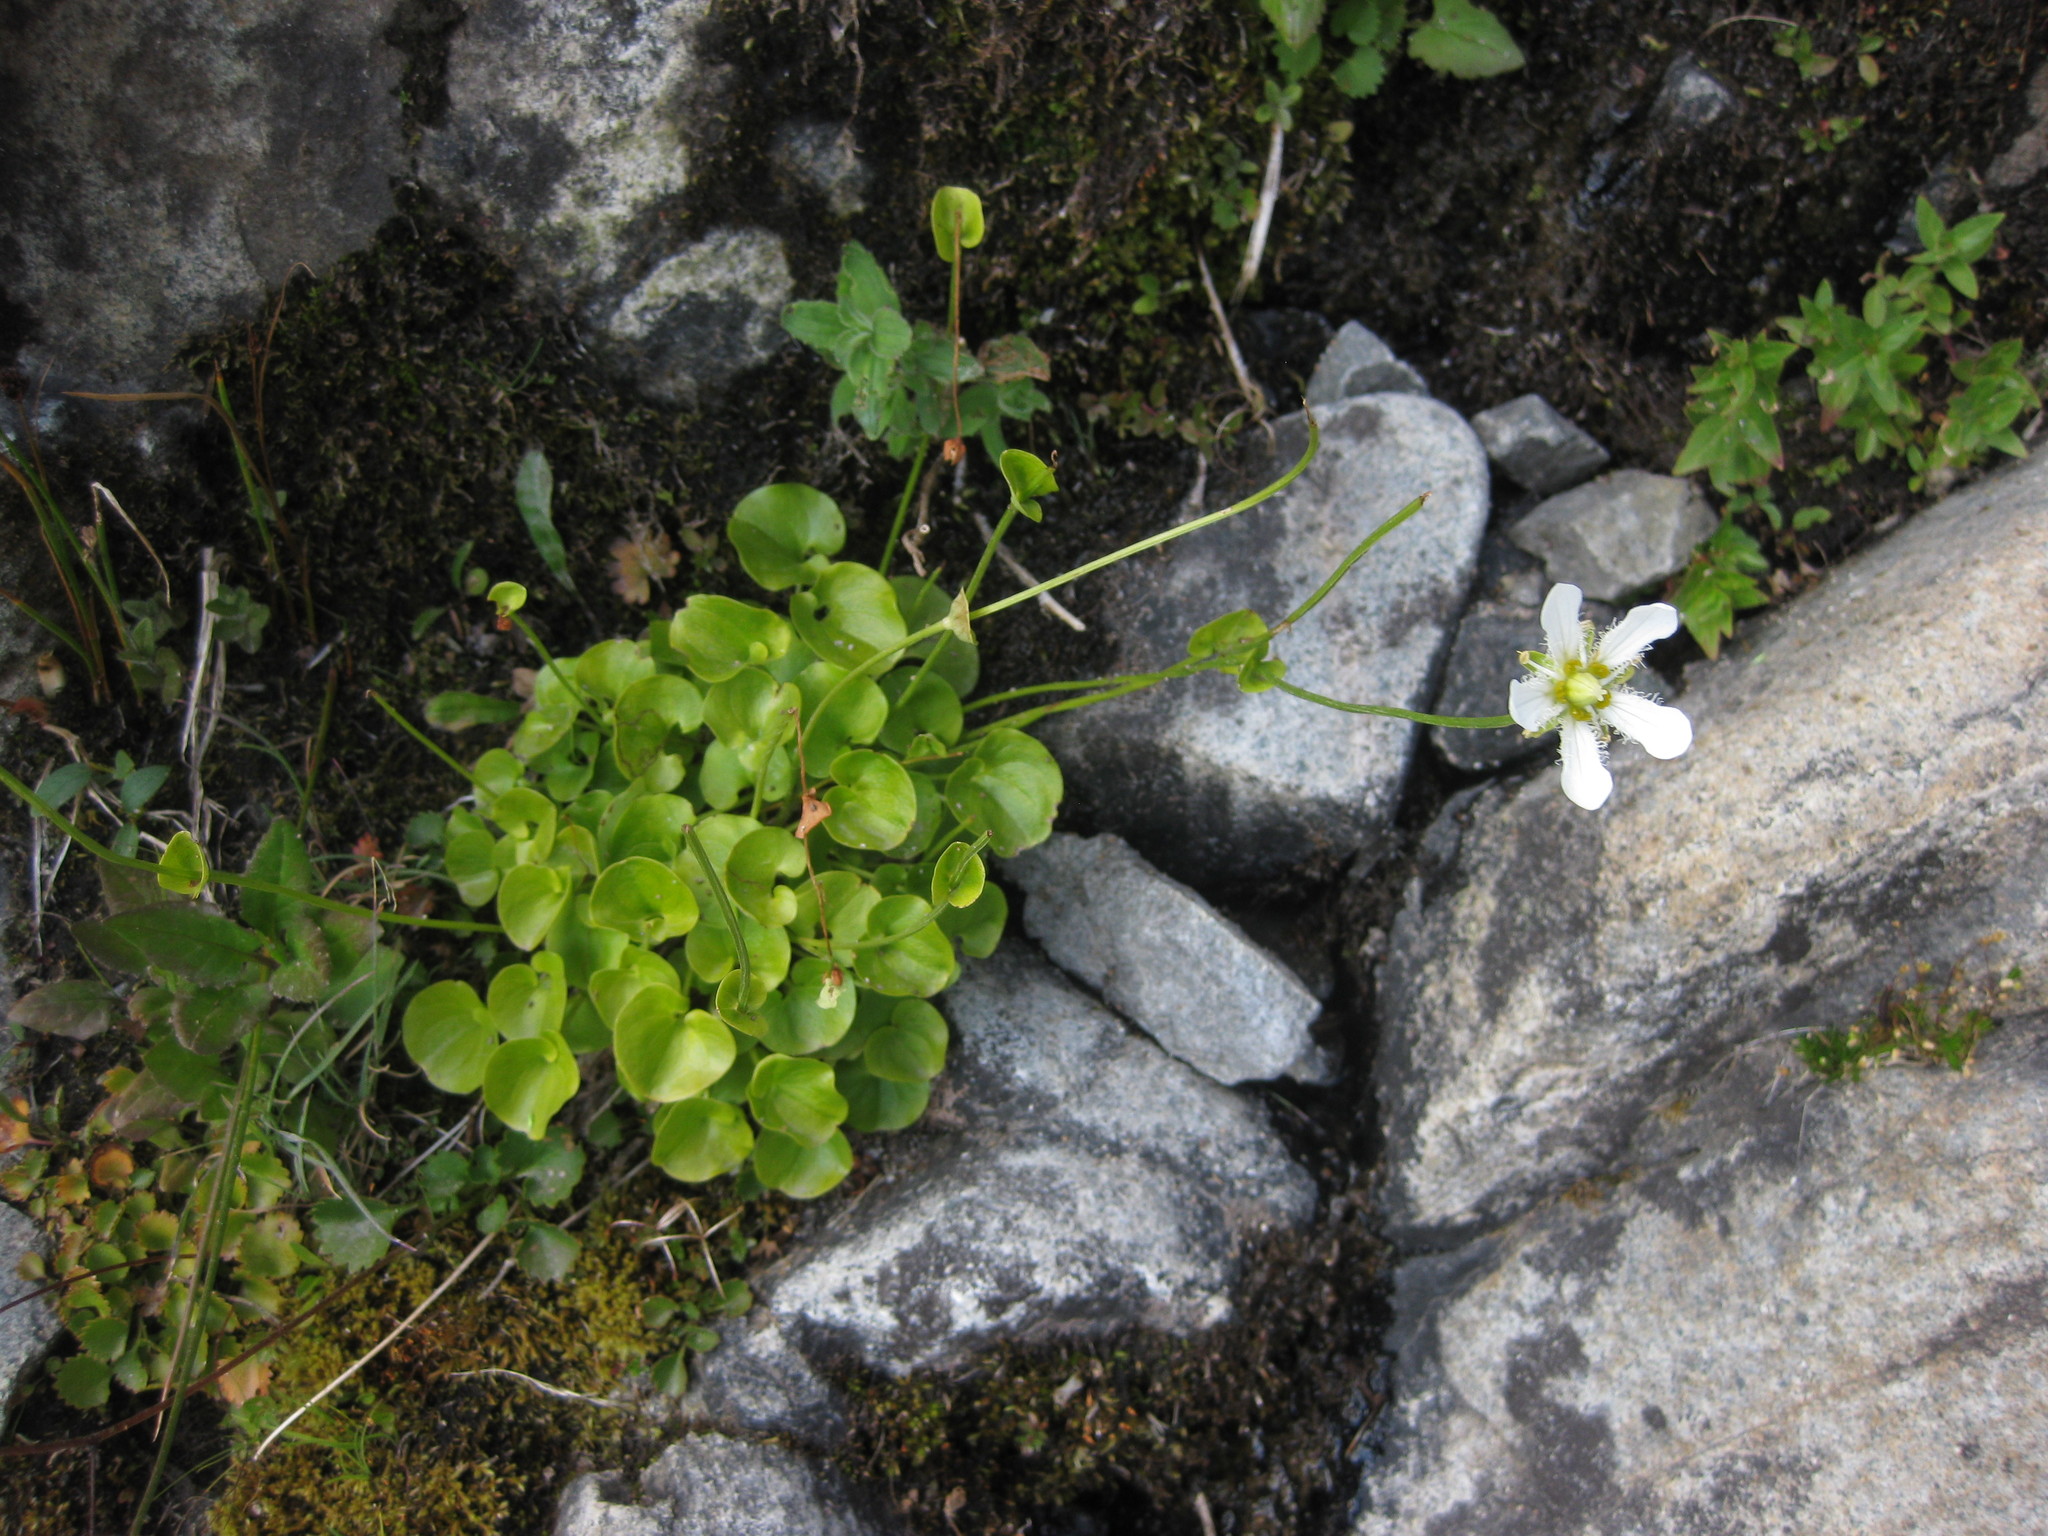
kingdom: Plantae
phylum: Tracheophyta
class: Magnoliopsida
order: Celastrales
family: Parnassiaceae
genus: Parnassia
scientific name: Parnassia fimbriata
